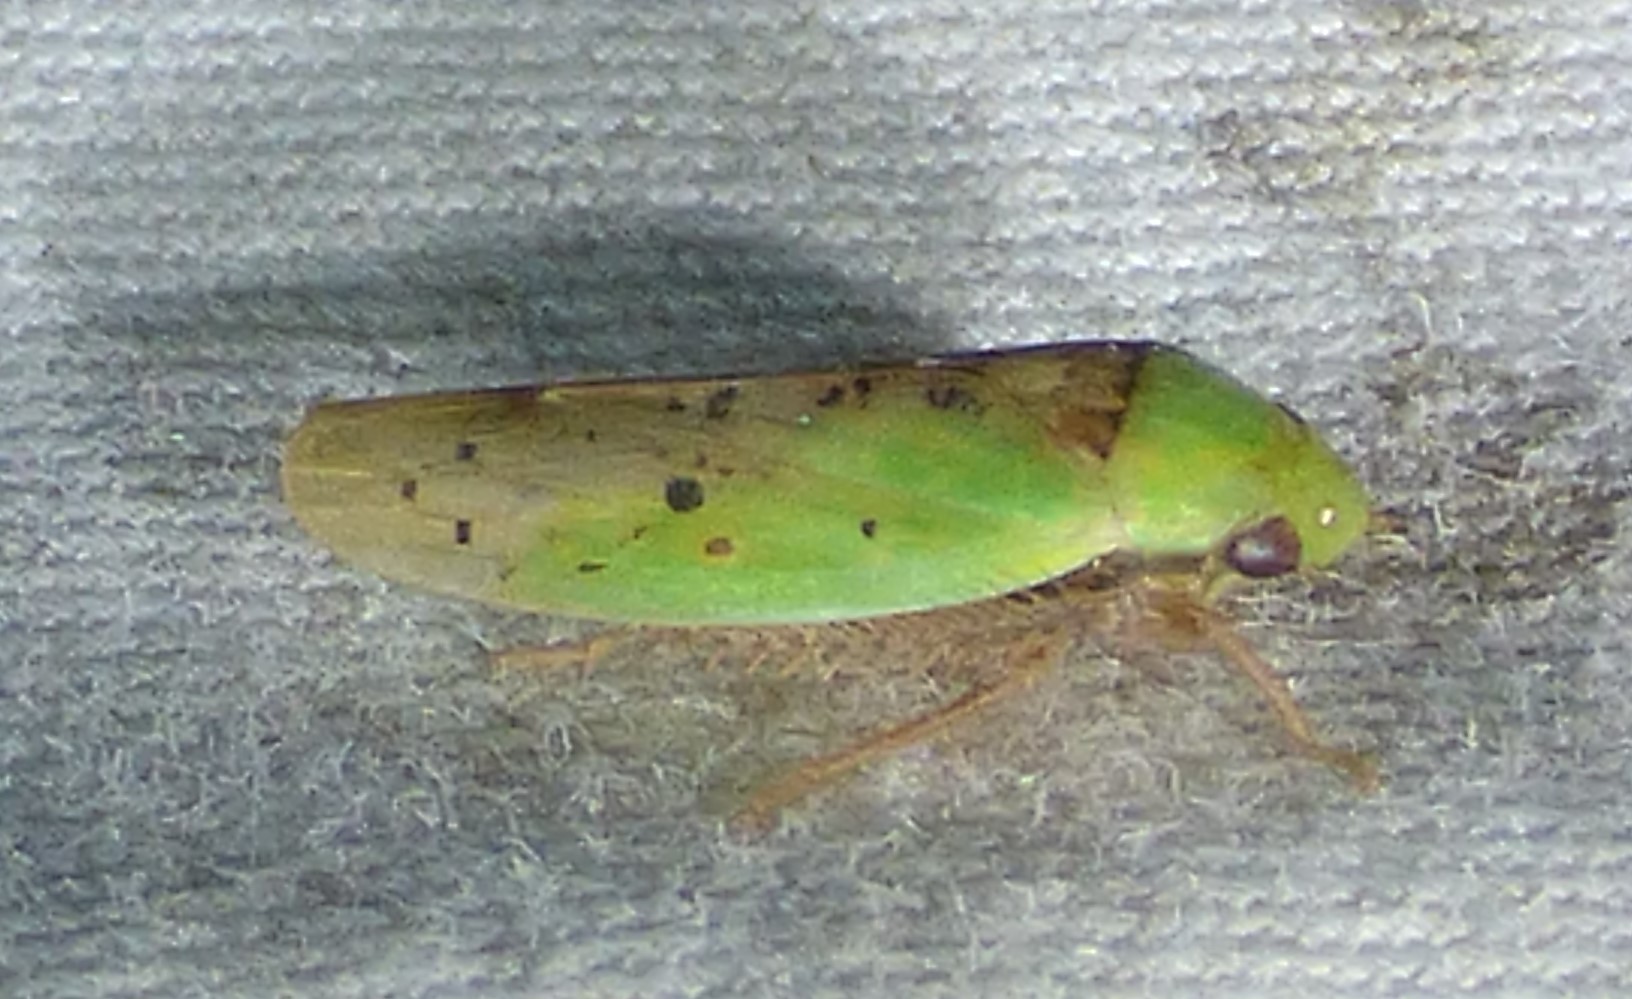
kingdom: Animalia
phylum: Arthropoda
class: Insecta
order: Hemiptera
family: Cicadellidae
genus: Ponana
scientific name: Ponana pectoralis
